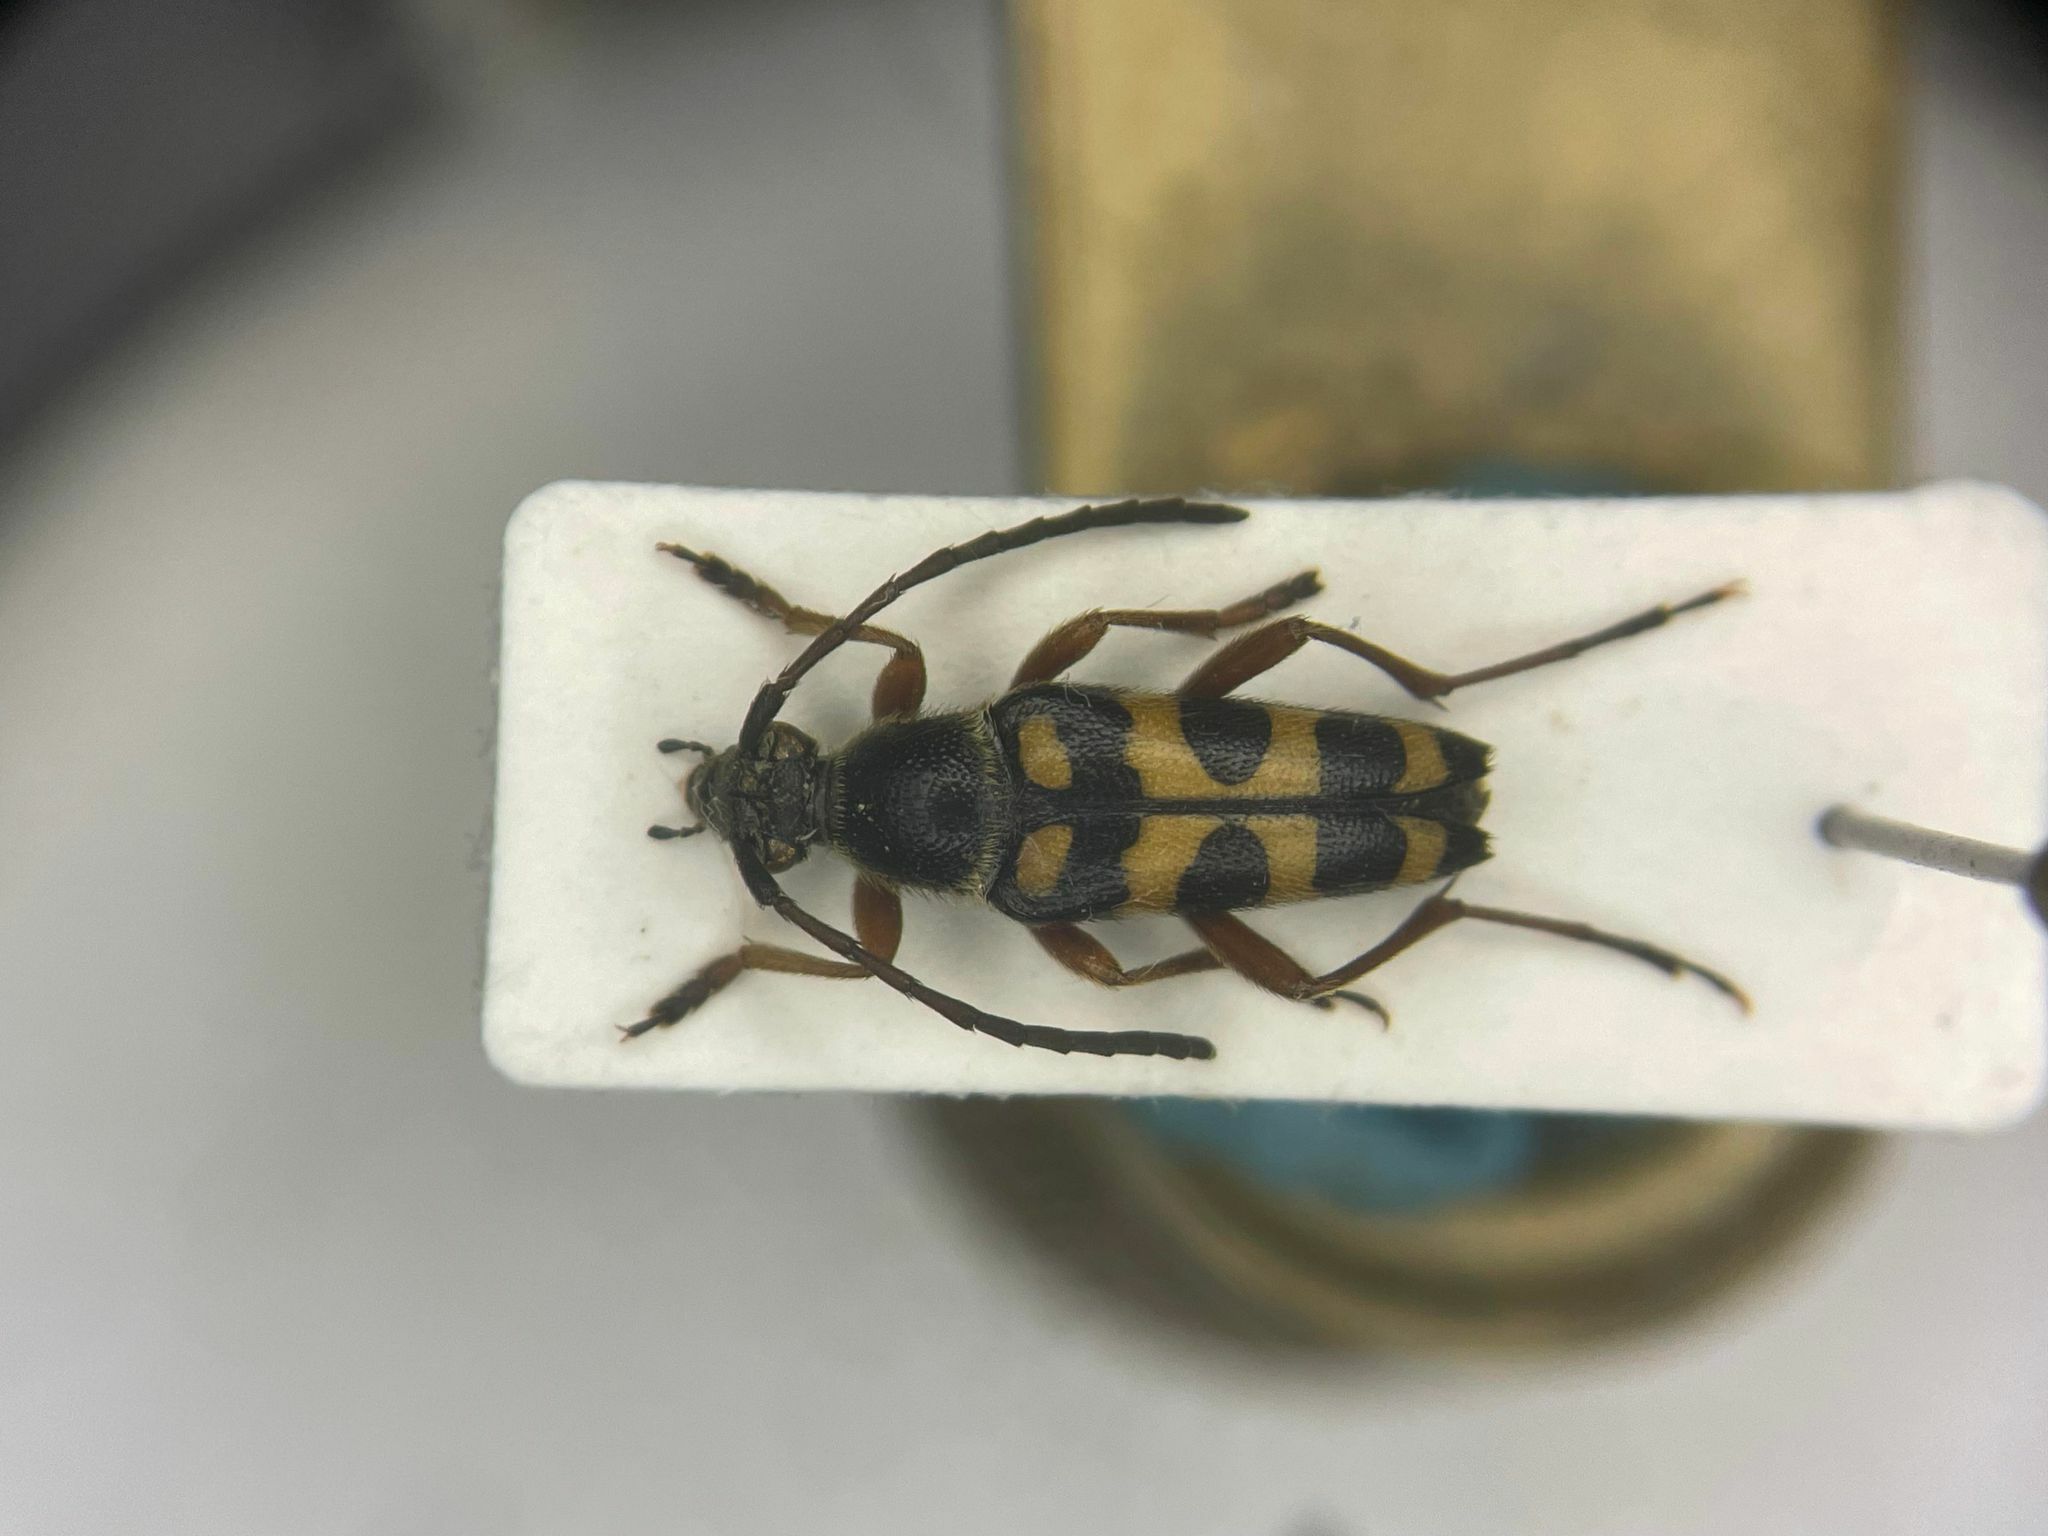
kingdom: Animalia
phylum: Arthropoda
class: Insecta
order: Coleoptera
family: Cerambycidae
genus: Typocerus
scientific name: Typocerus sparsus
